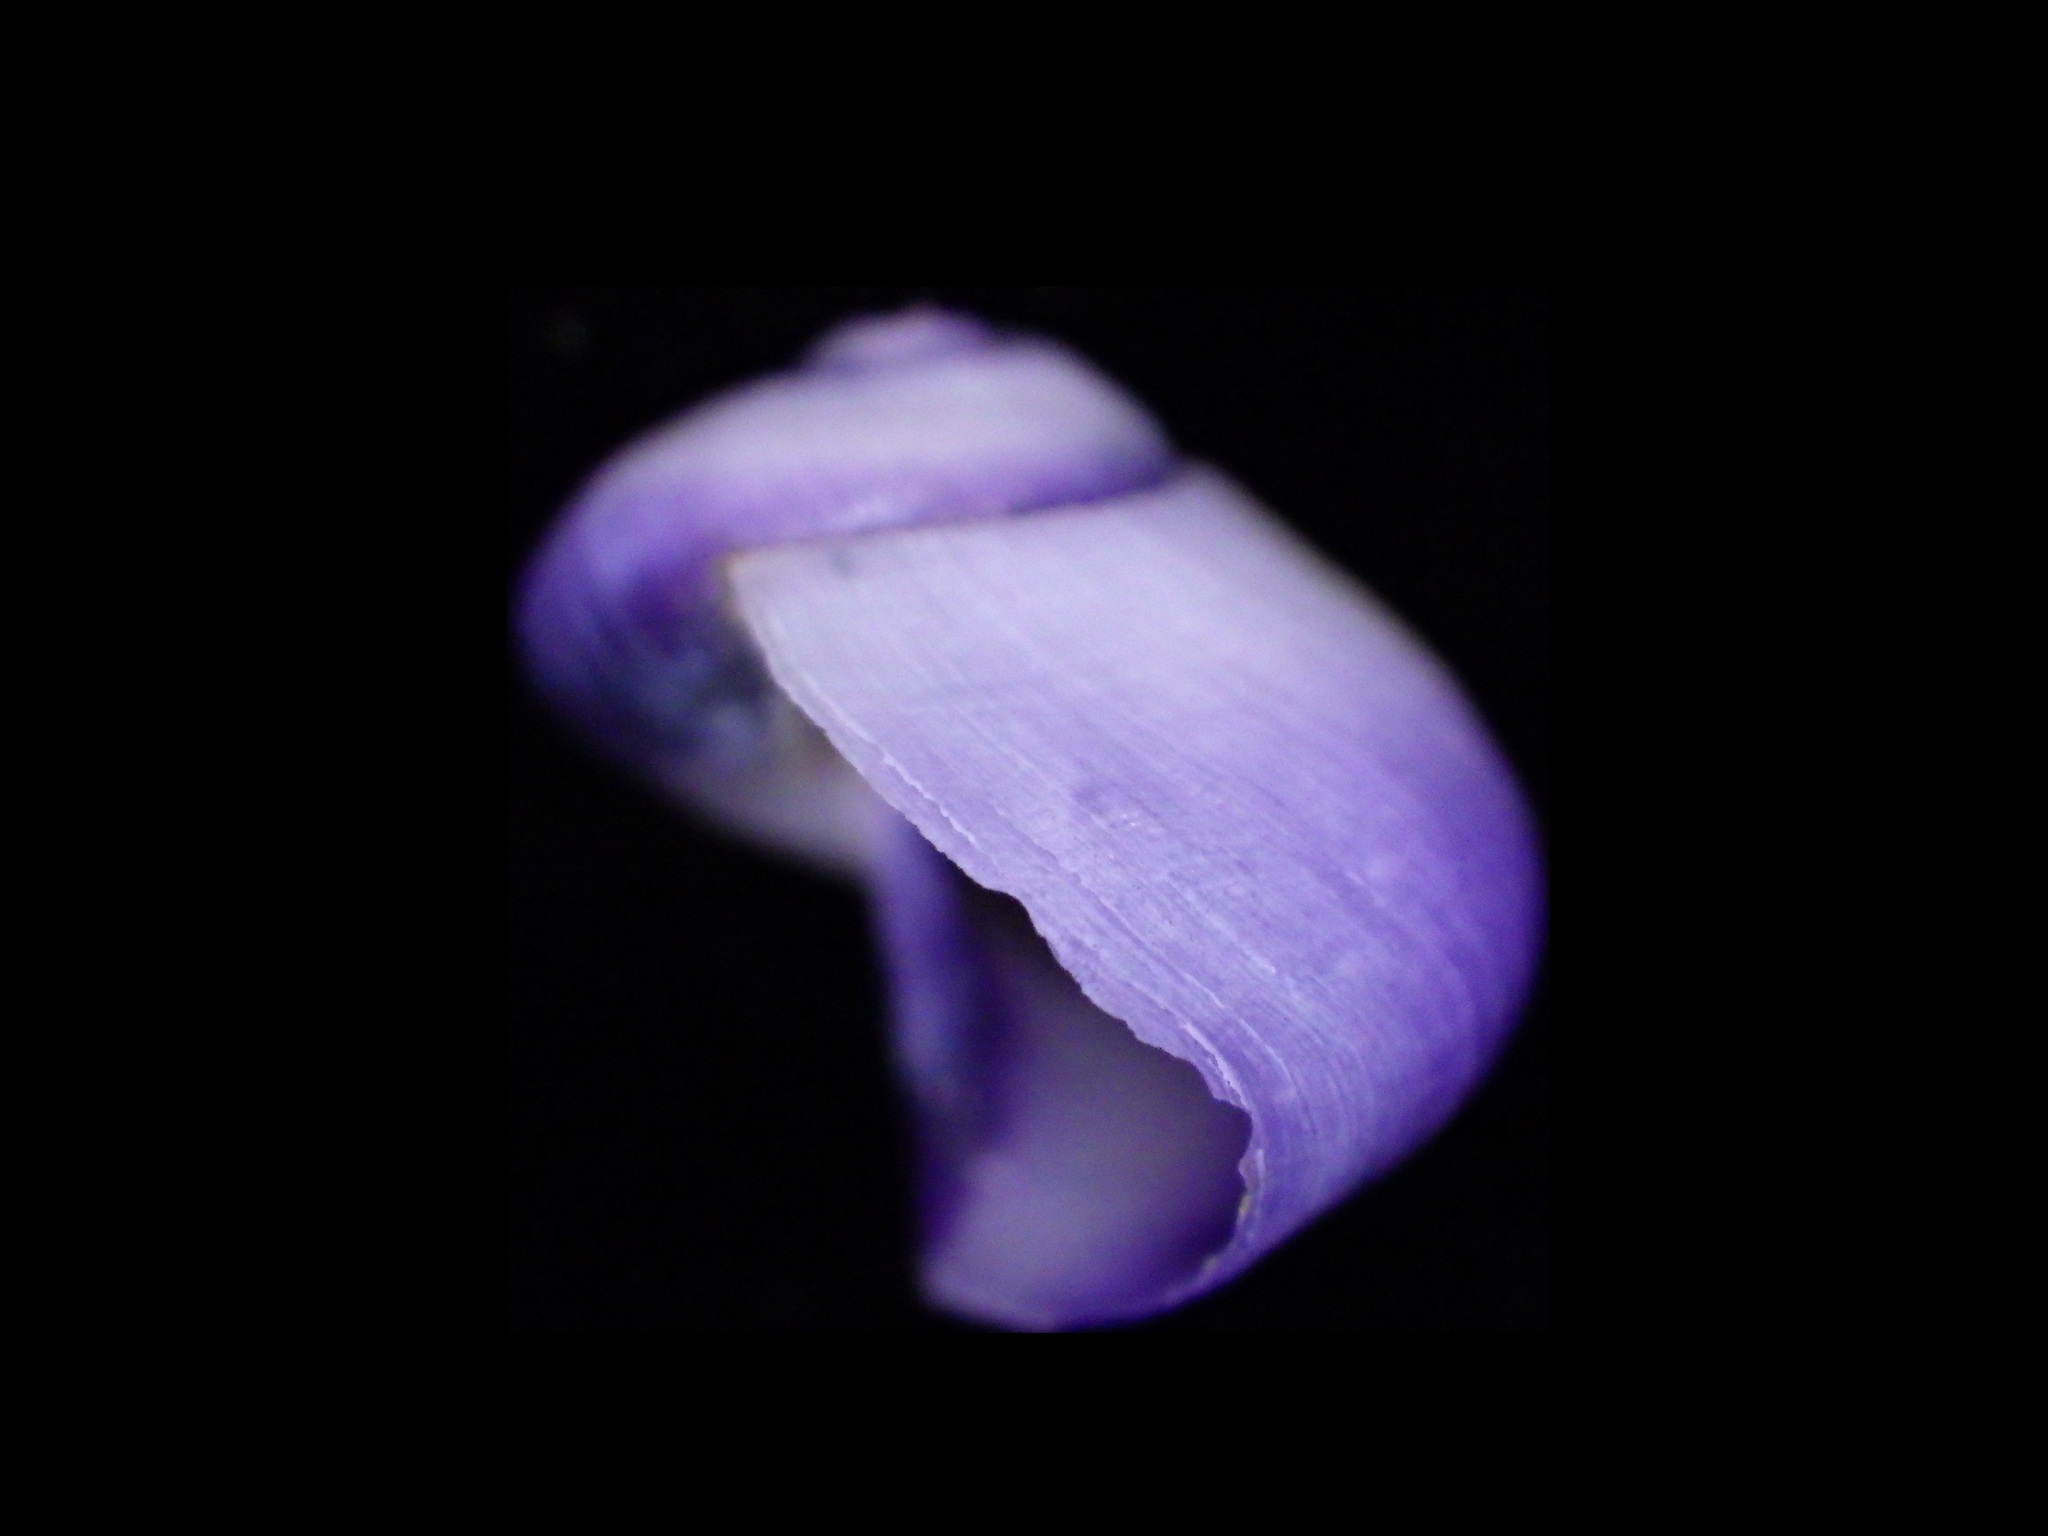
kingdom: Animalia
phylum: Mollusca
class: Gastropoda
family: Epitoniidae
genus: Janthina
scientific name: Janthina janthina
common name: Common janthina
